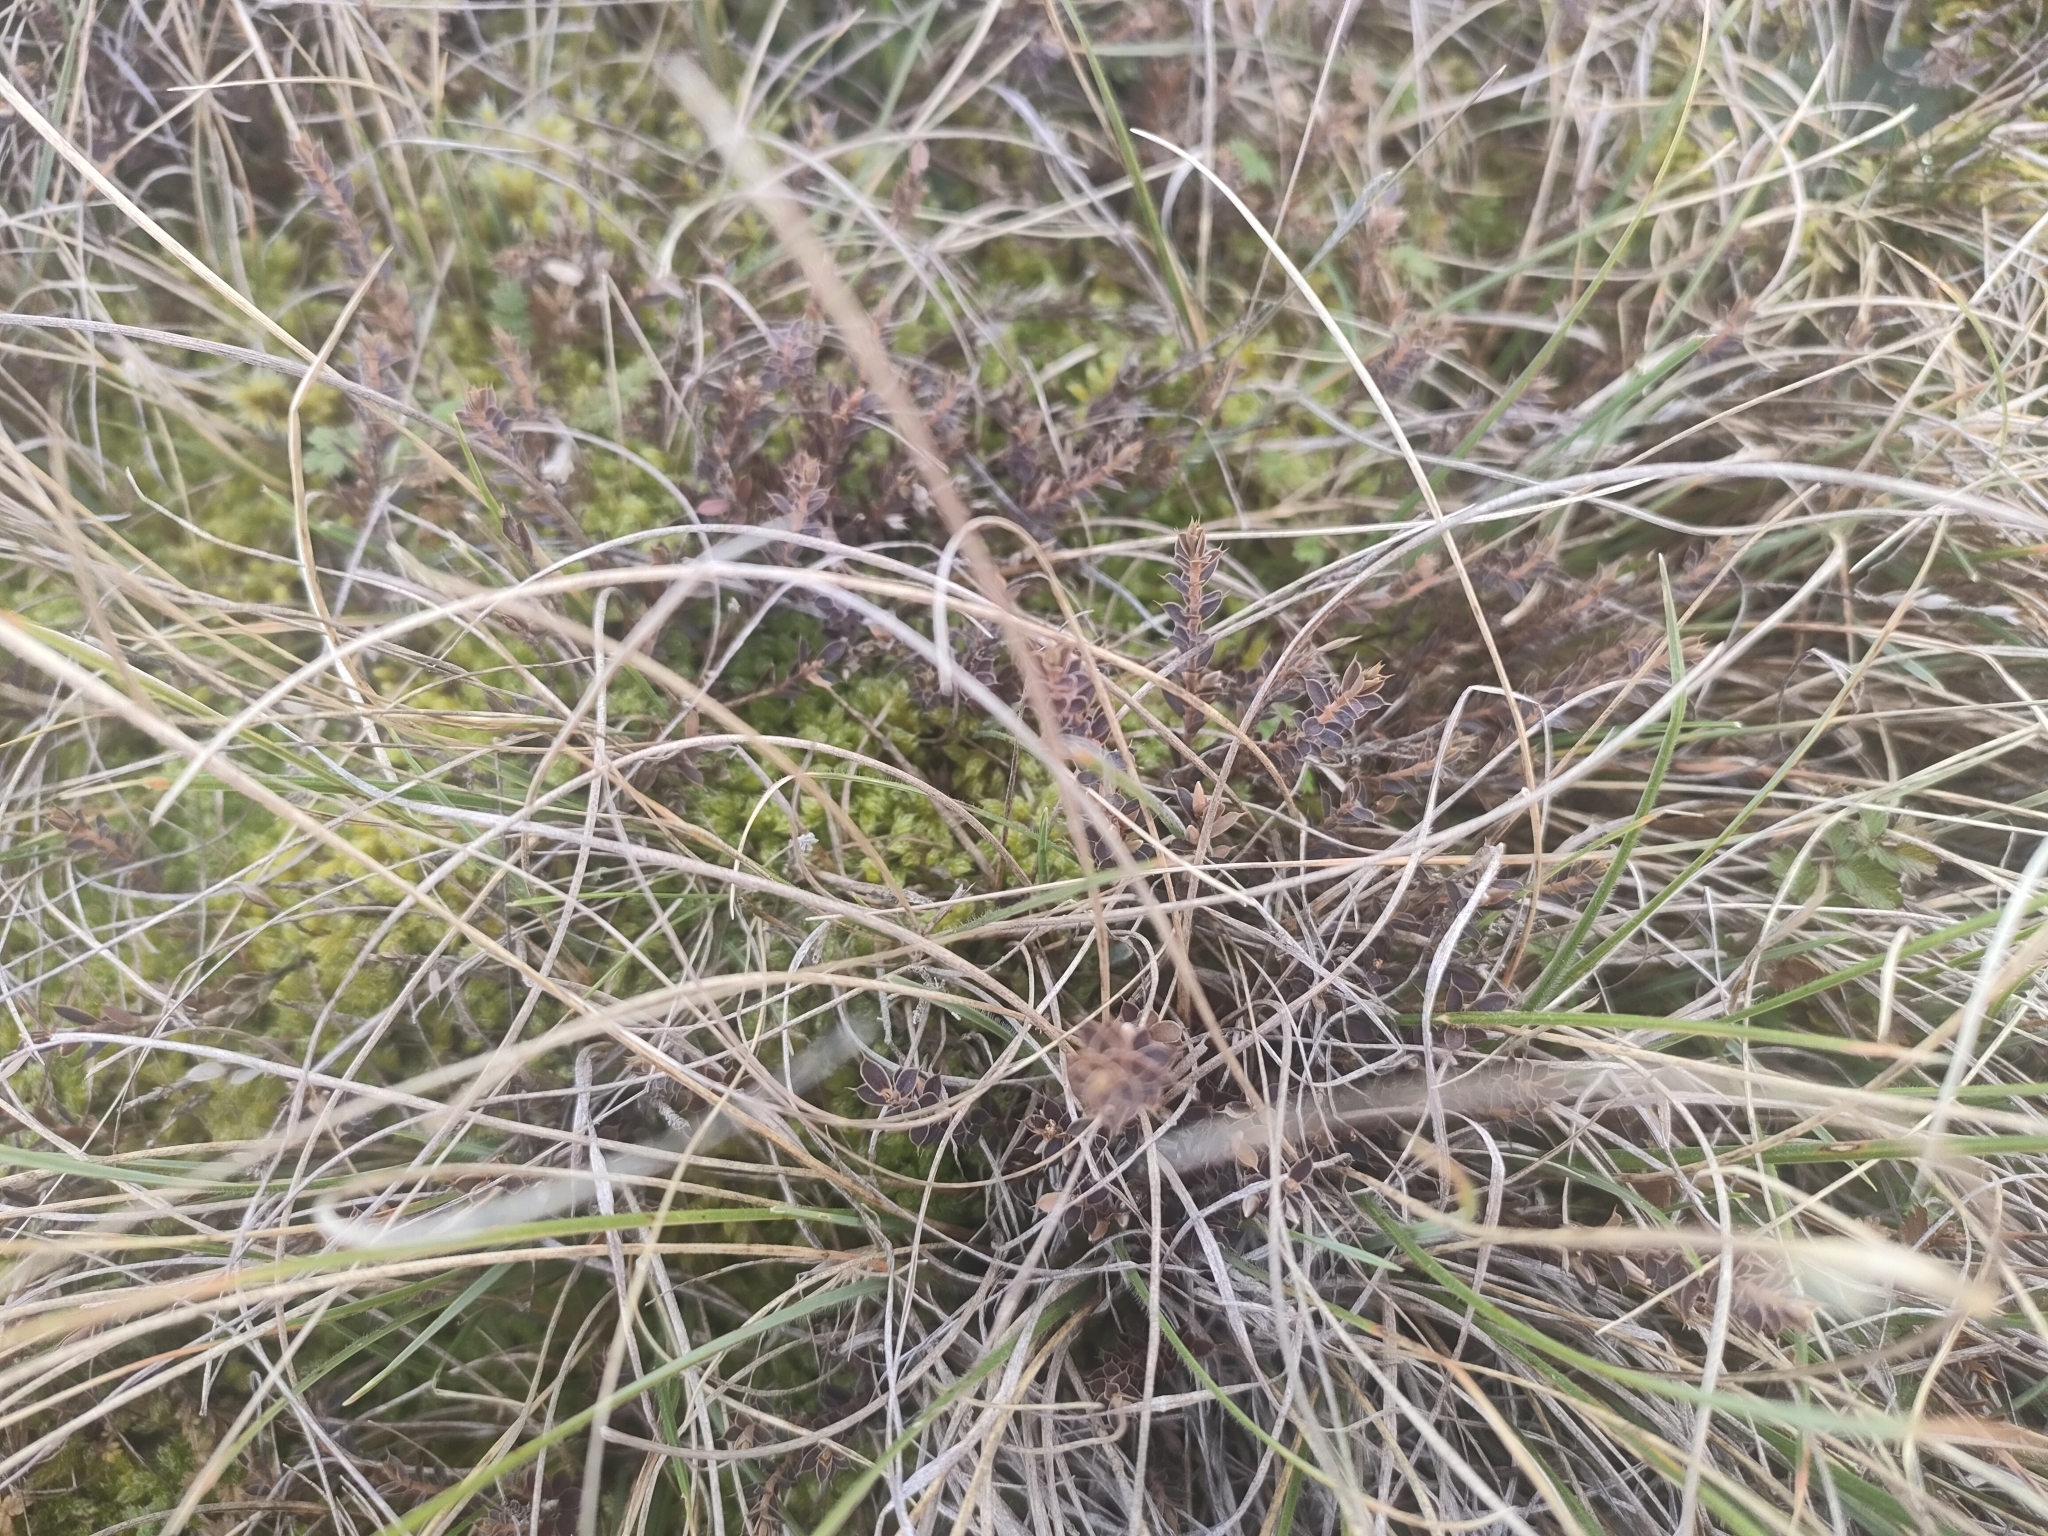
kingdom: Plantae
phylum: Tracheophyta
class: Magnoliopsida
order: Ericales
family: Ericaceae
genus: Styphelia
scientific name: Styphelia nesophila
